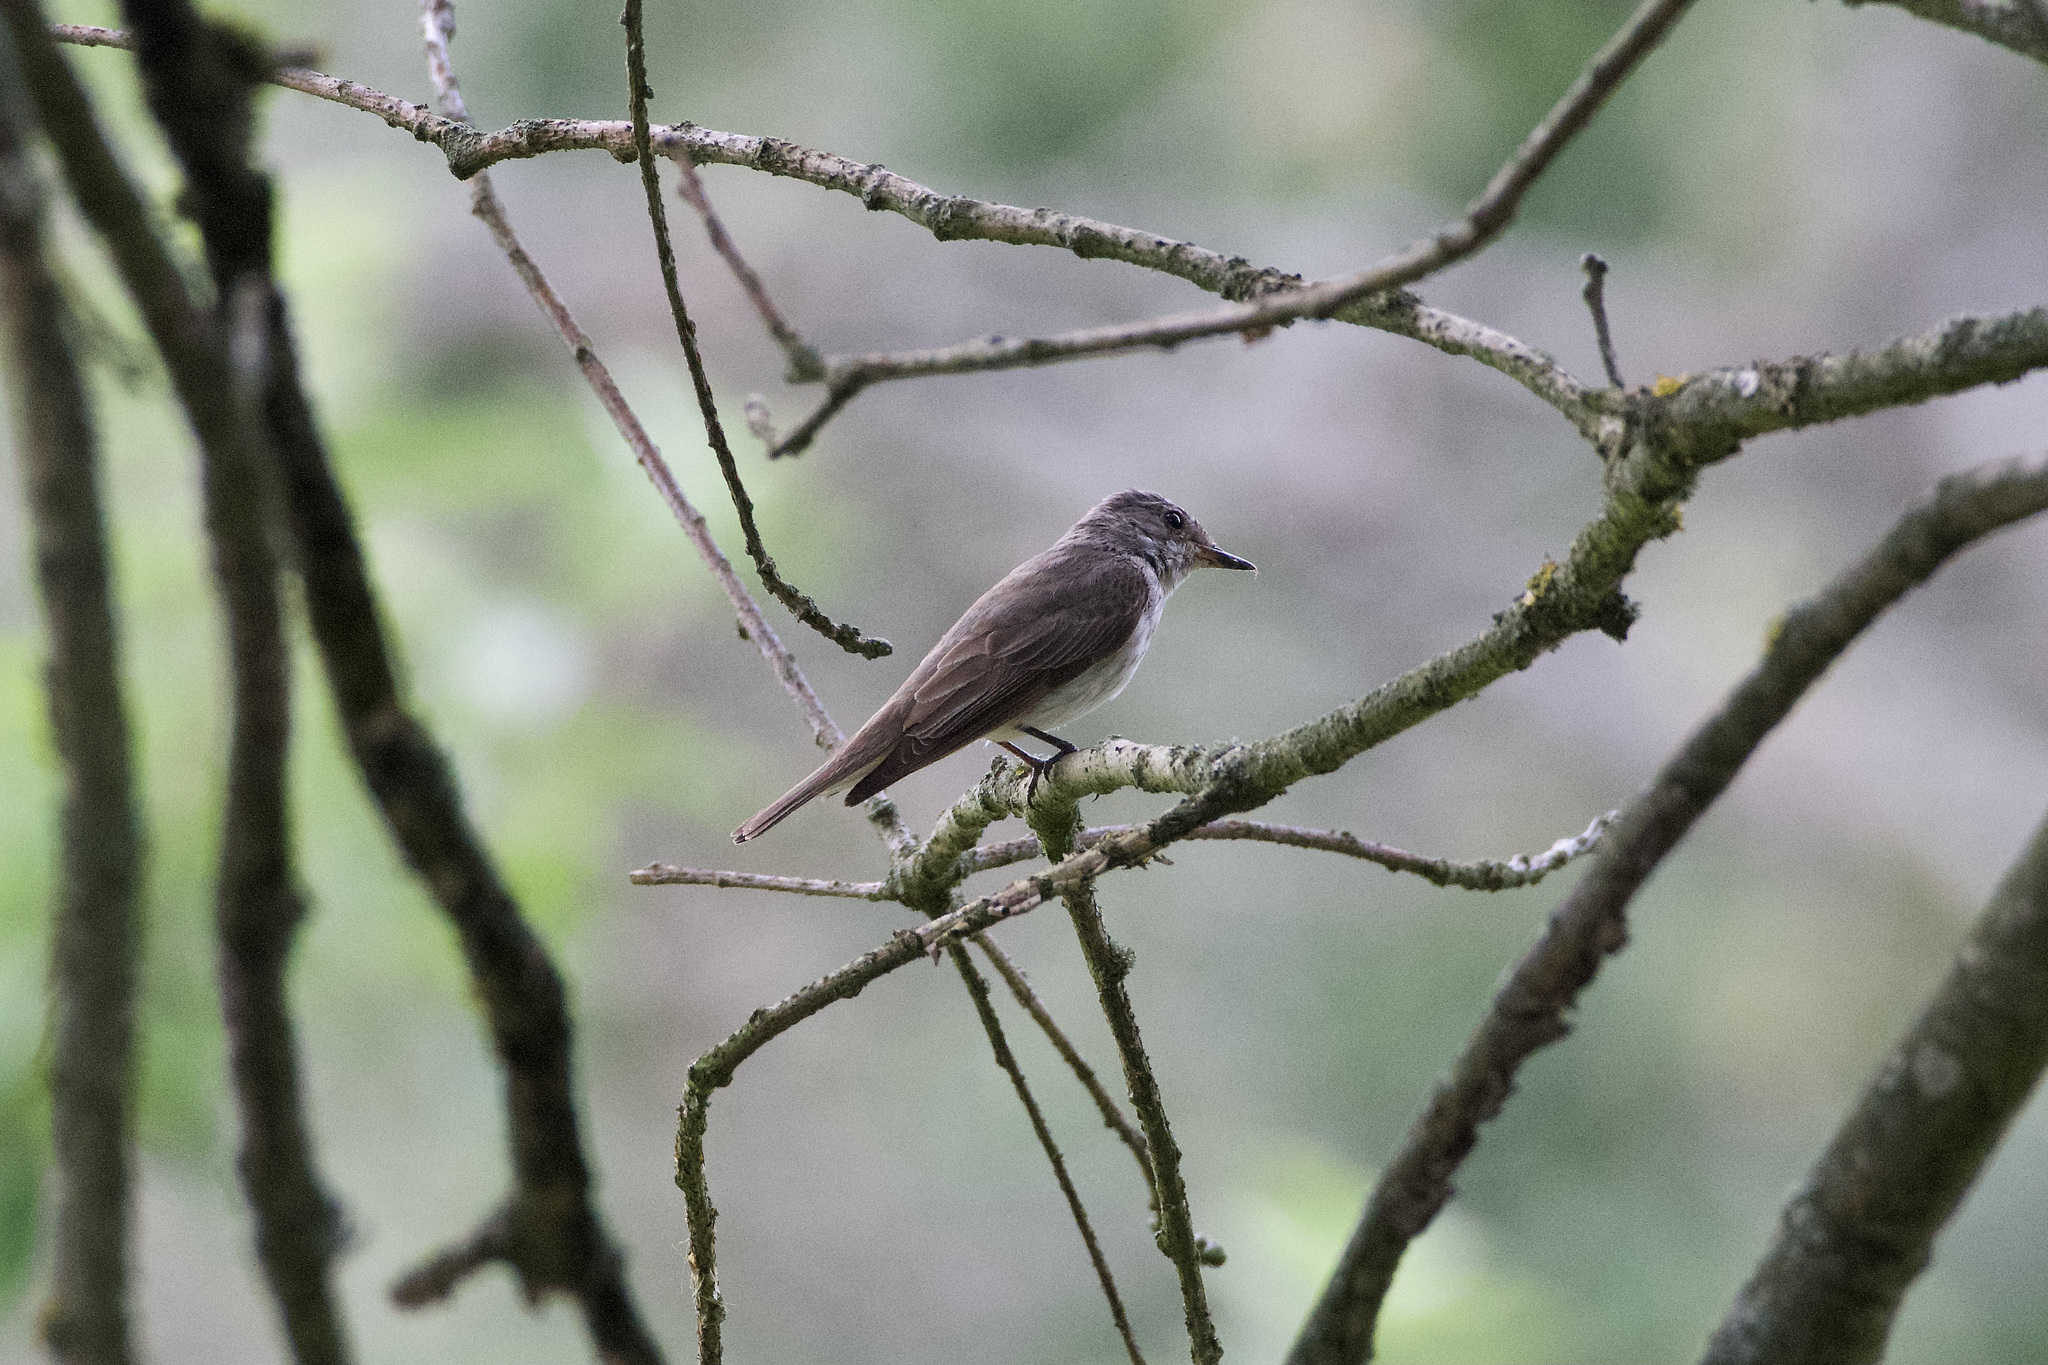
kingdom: Animalia
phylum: Chordata
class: Aves
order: Passeriformes
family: Muscicapidae
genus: Muscicapa
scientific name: Muscicapa striata
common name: Spotted flycatcher
